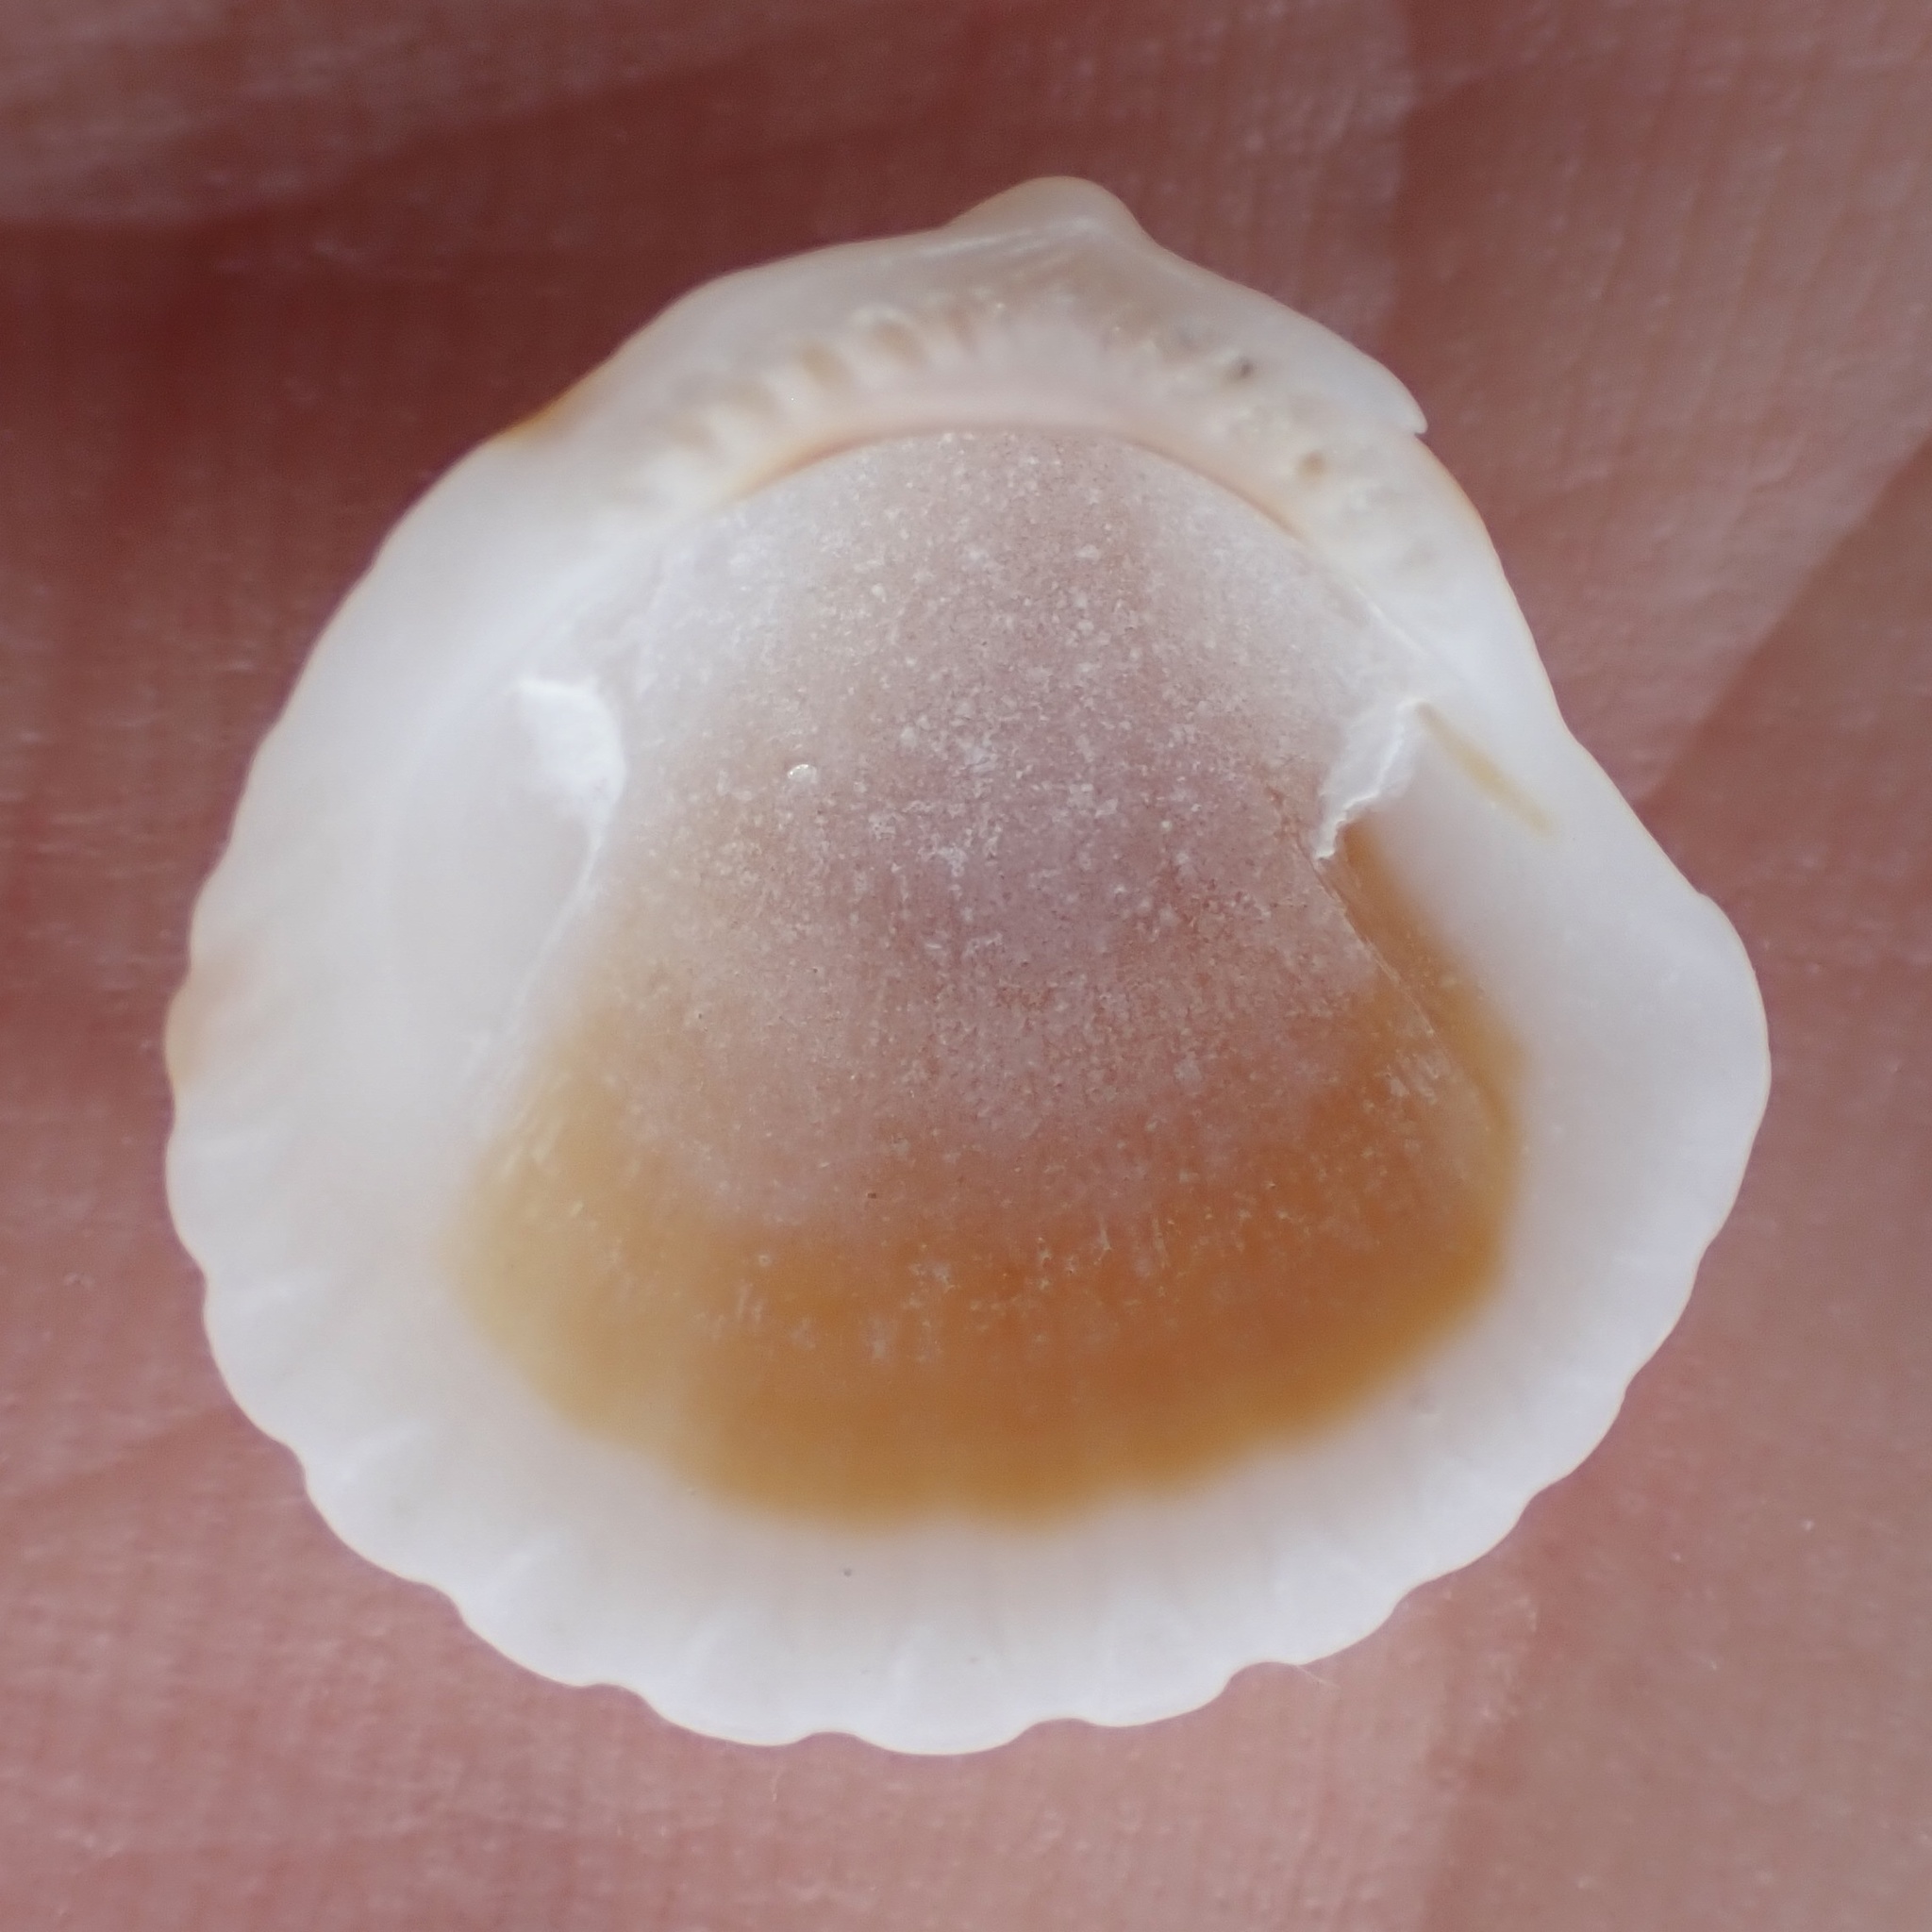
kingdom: Animalia
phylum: Mollusca
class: Bivalvia
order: Arcida
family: Glycymerididae
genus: Tucetona
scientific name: Tucetona pectinata
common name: Comb bittersweet
